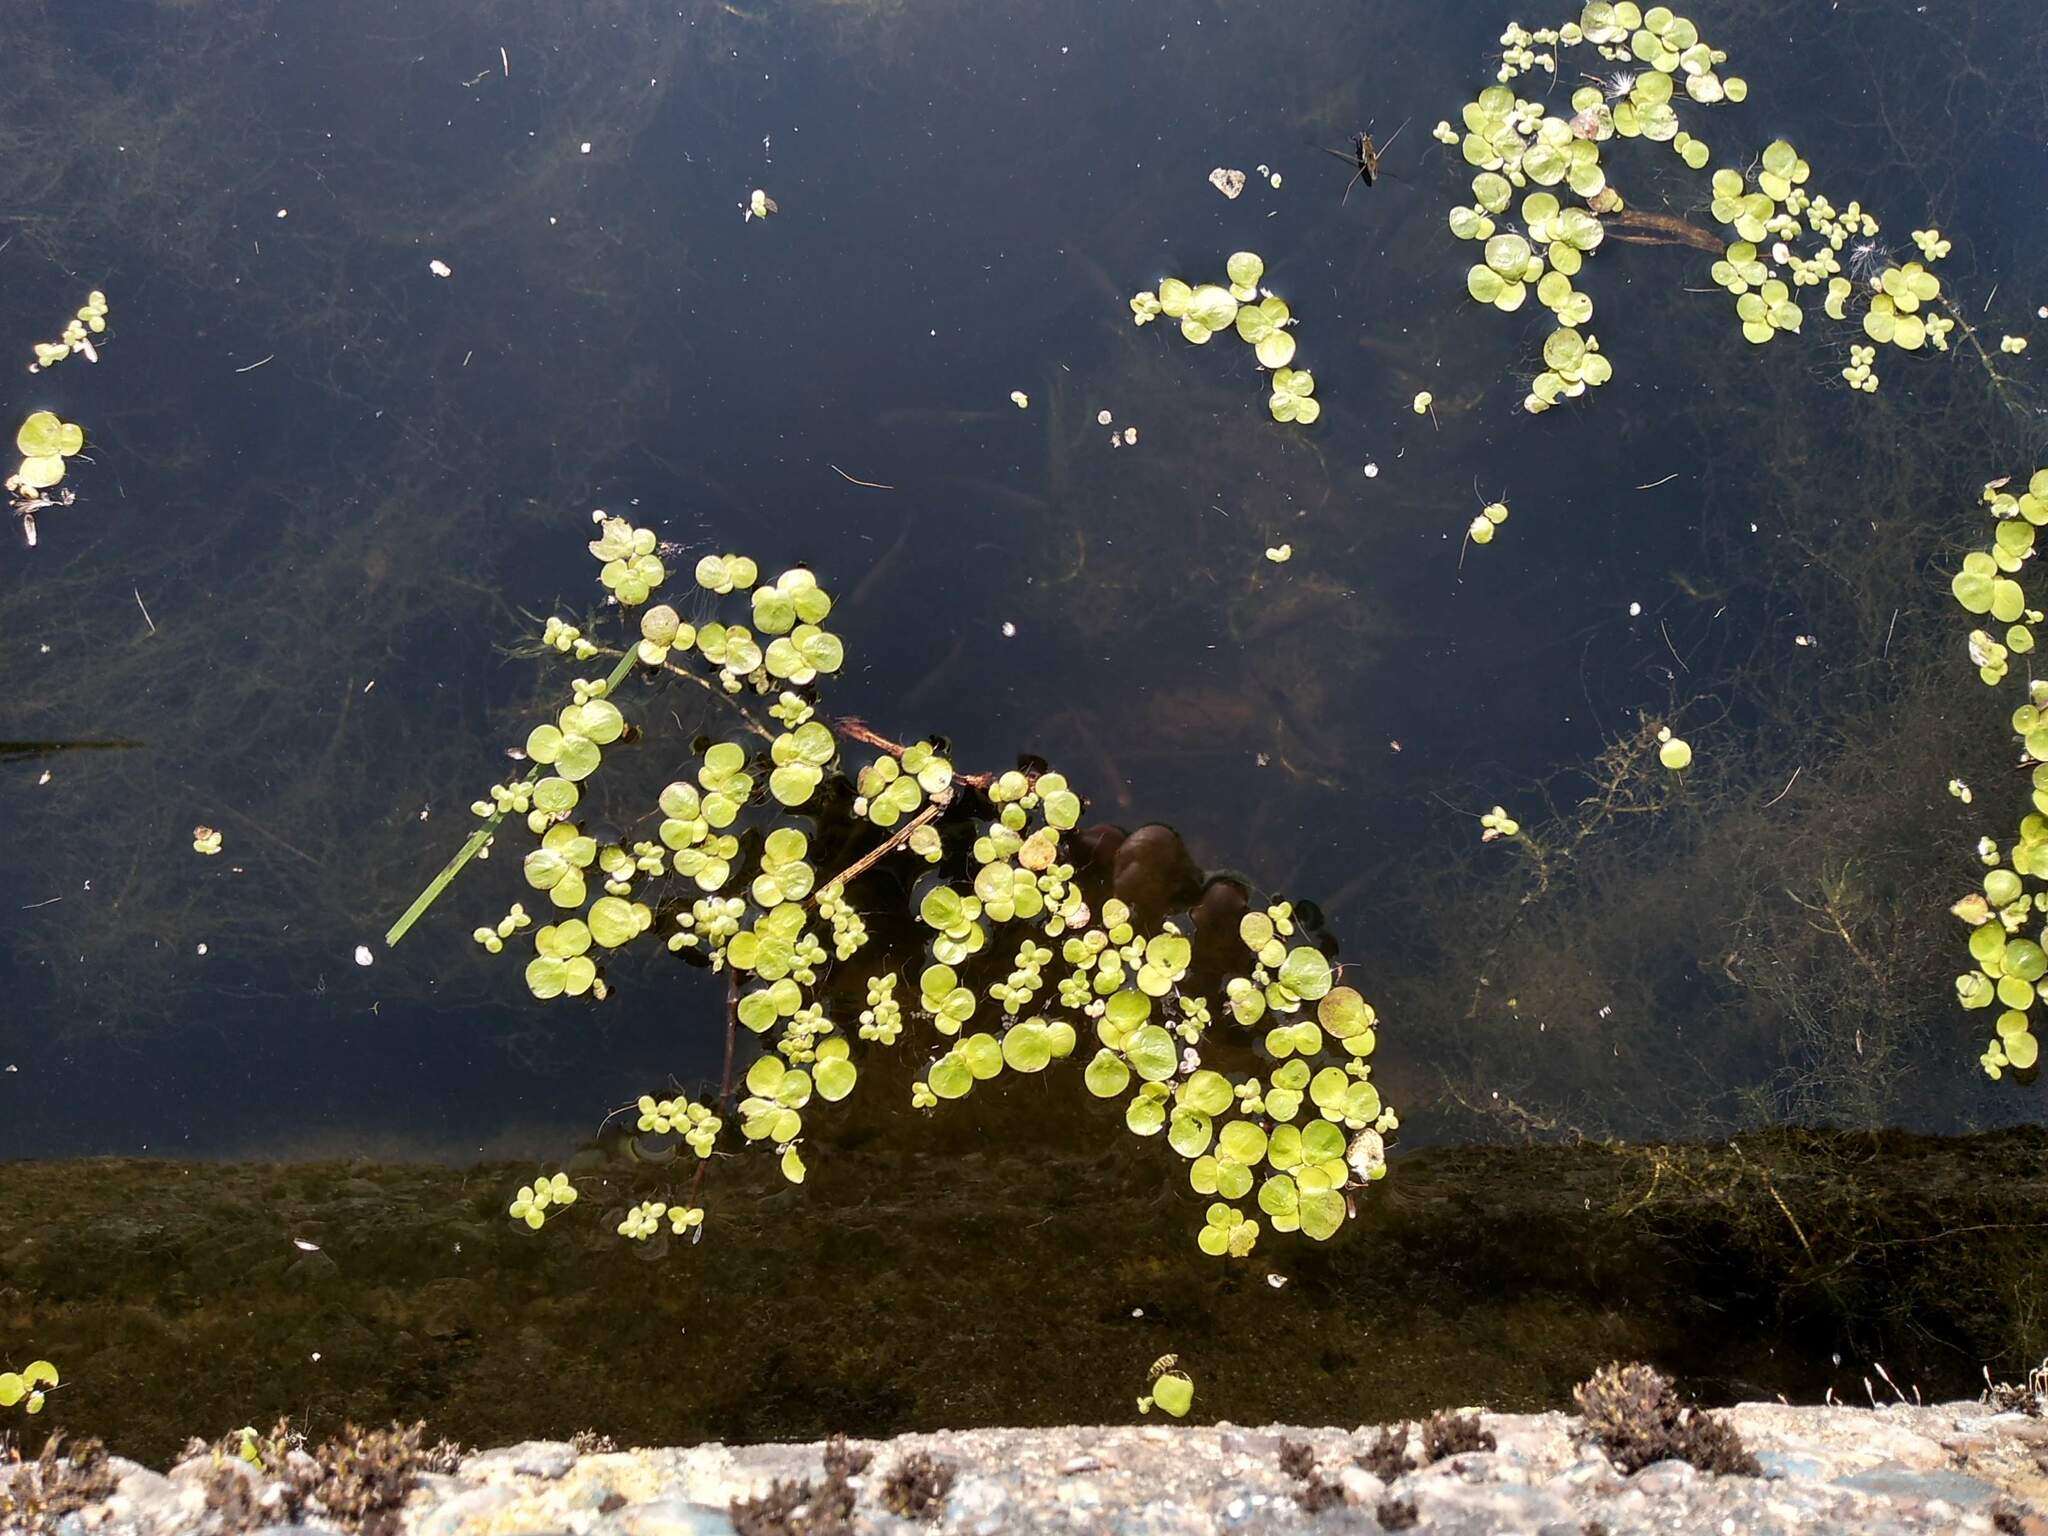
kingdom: Plantae
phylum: Tracheophyta
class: Liliopsida
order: Alismatales
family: Araceae
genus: Spirodela
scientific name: Spirodela polyrhiza
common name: Great duckweed
